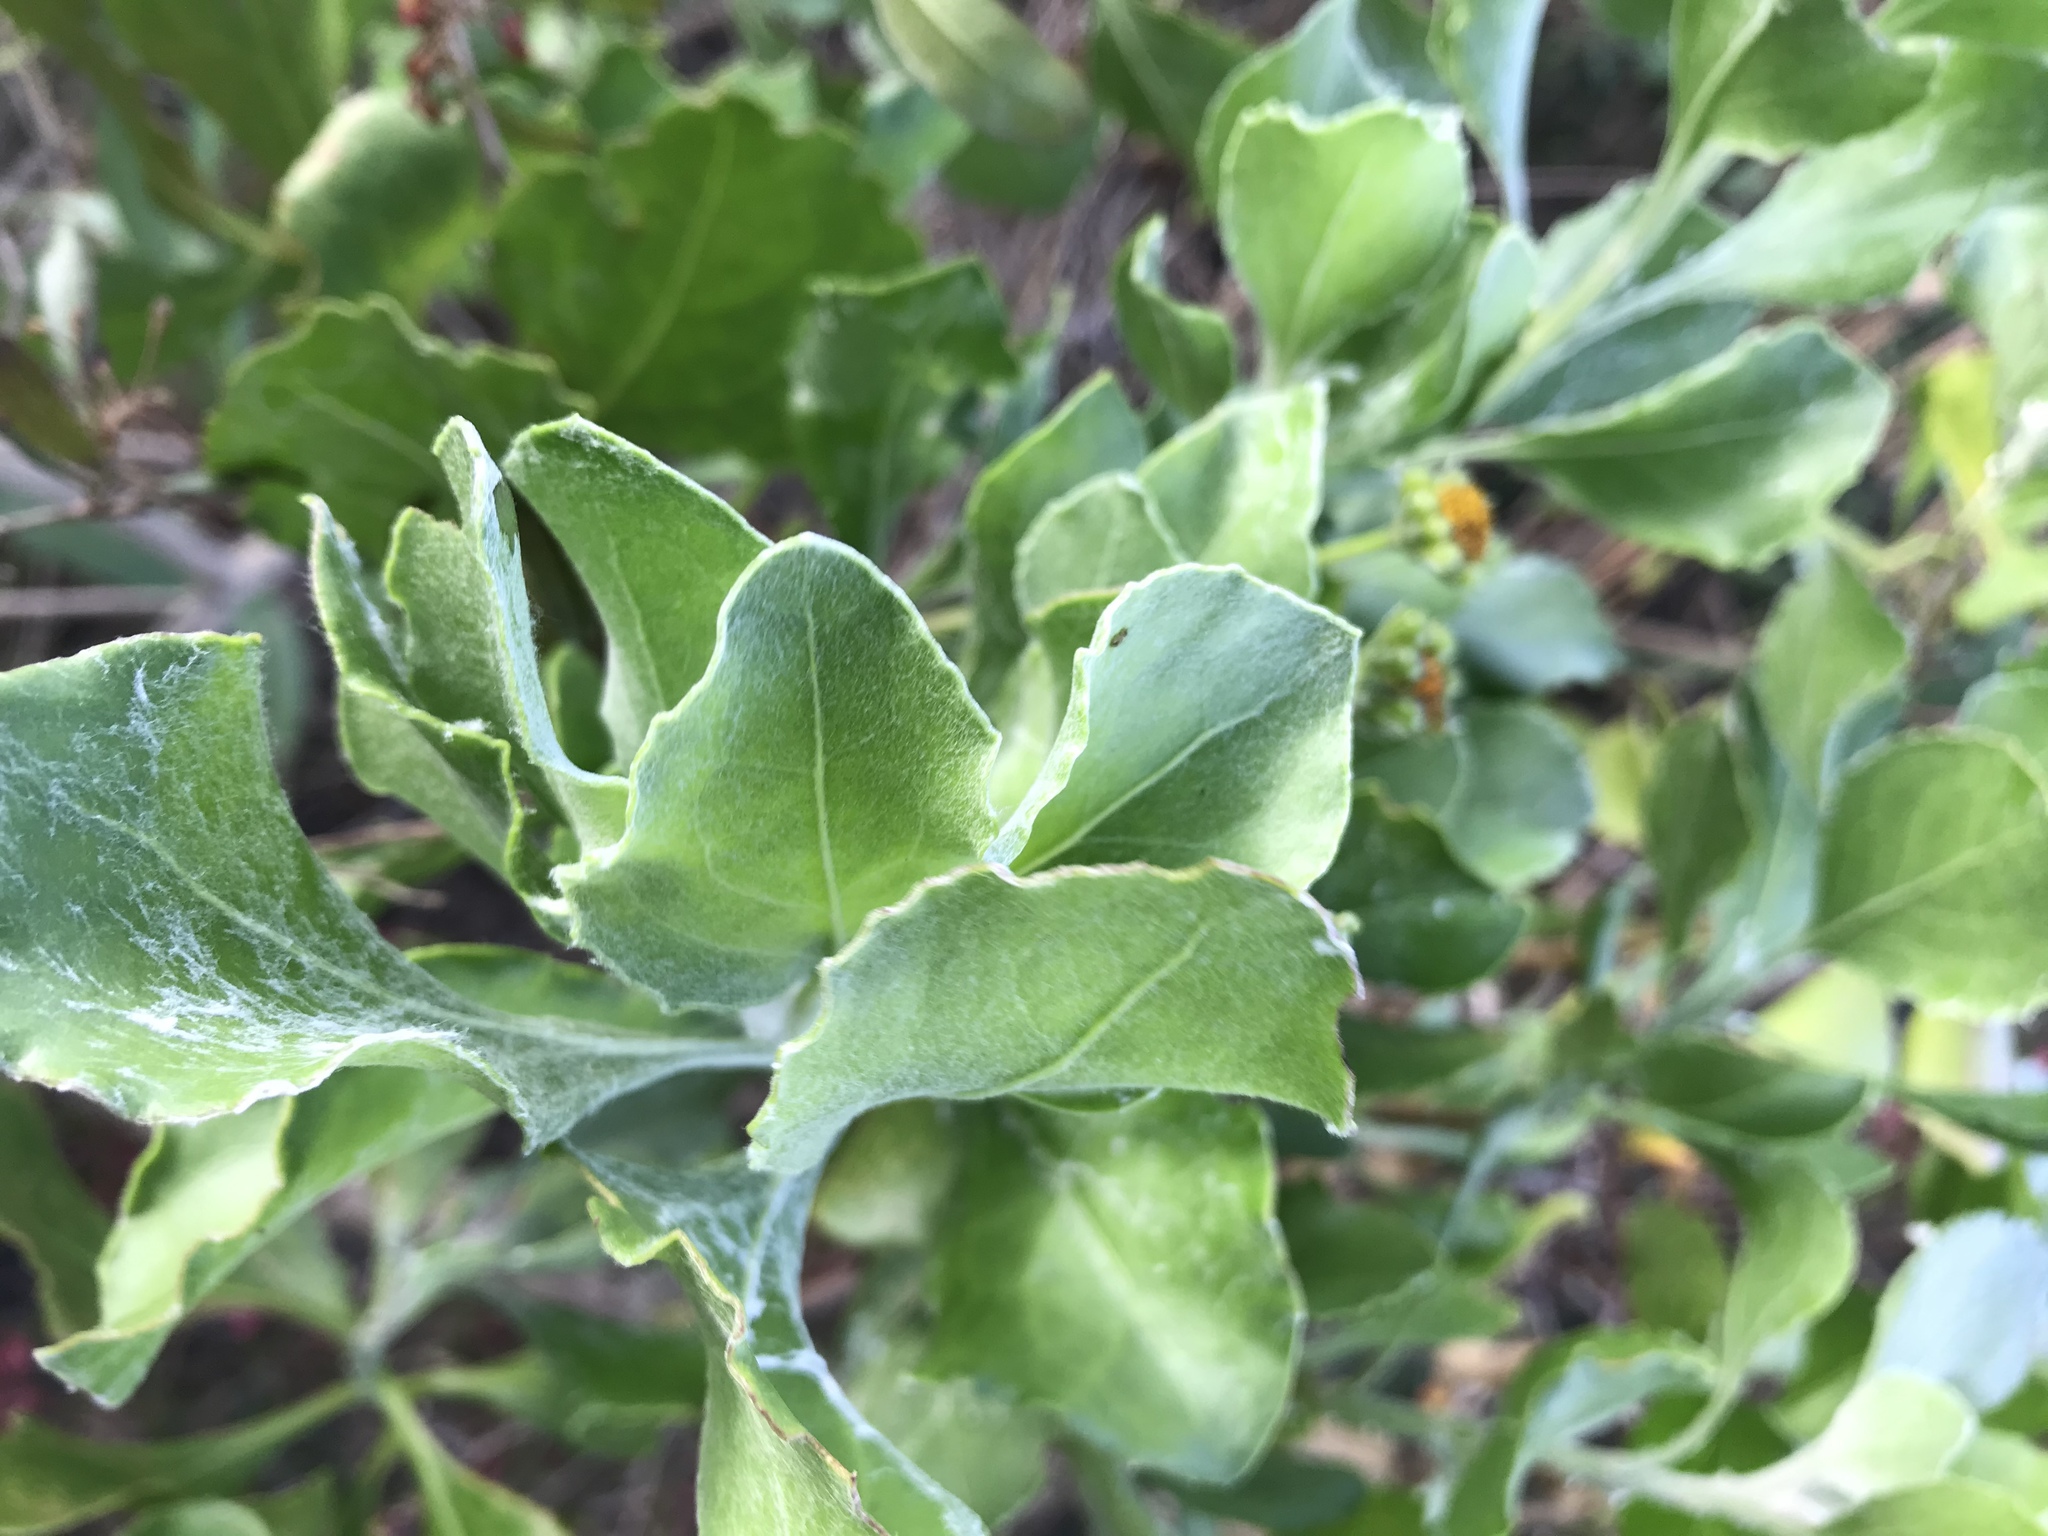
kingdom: Plantae
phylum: Tracheophyta
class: Magnoliopsida
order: Asterales
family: Asteraceae
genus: Osteospermum
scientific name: Osteospermum moniliferum
